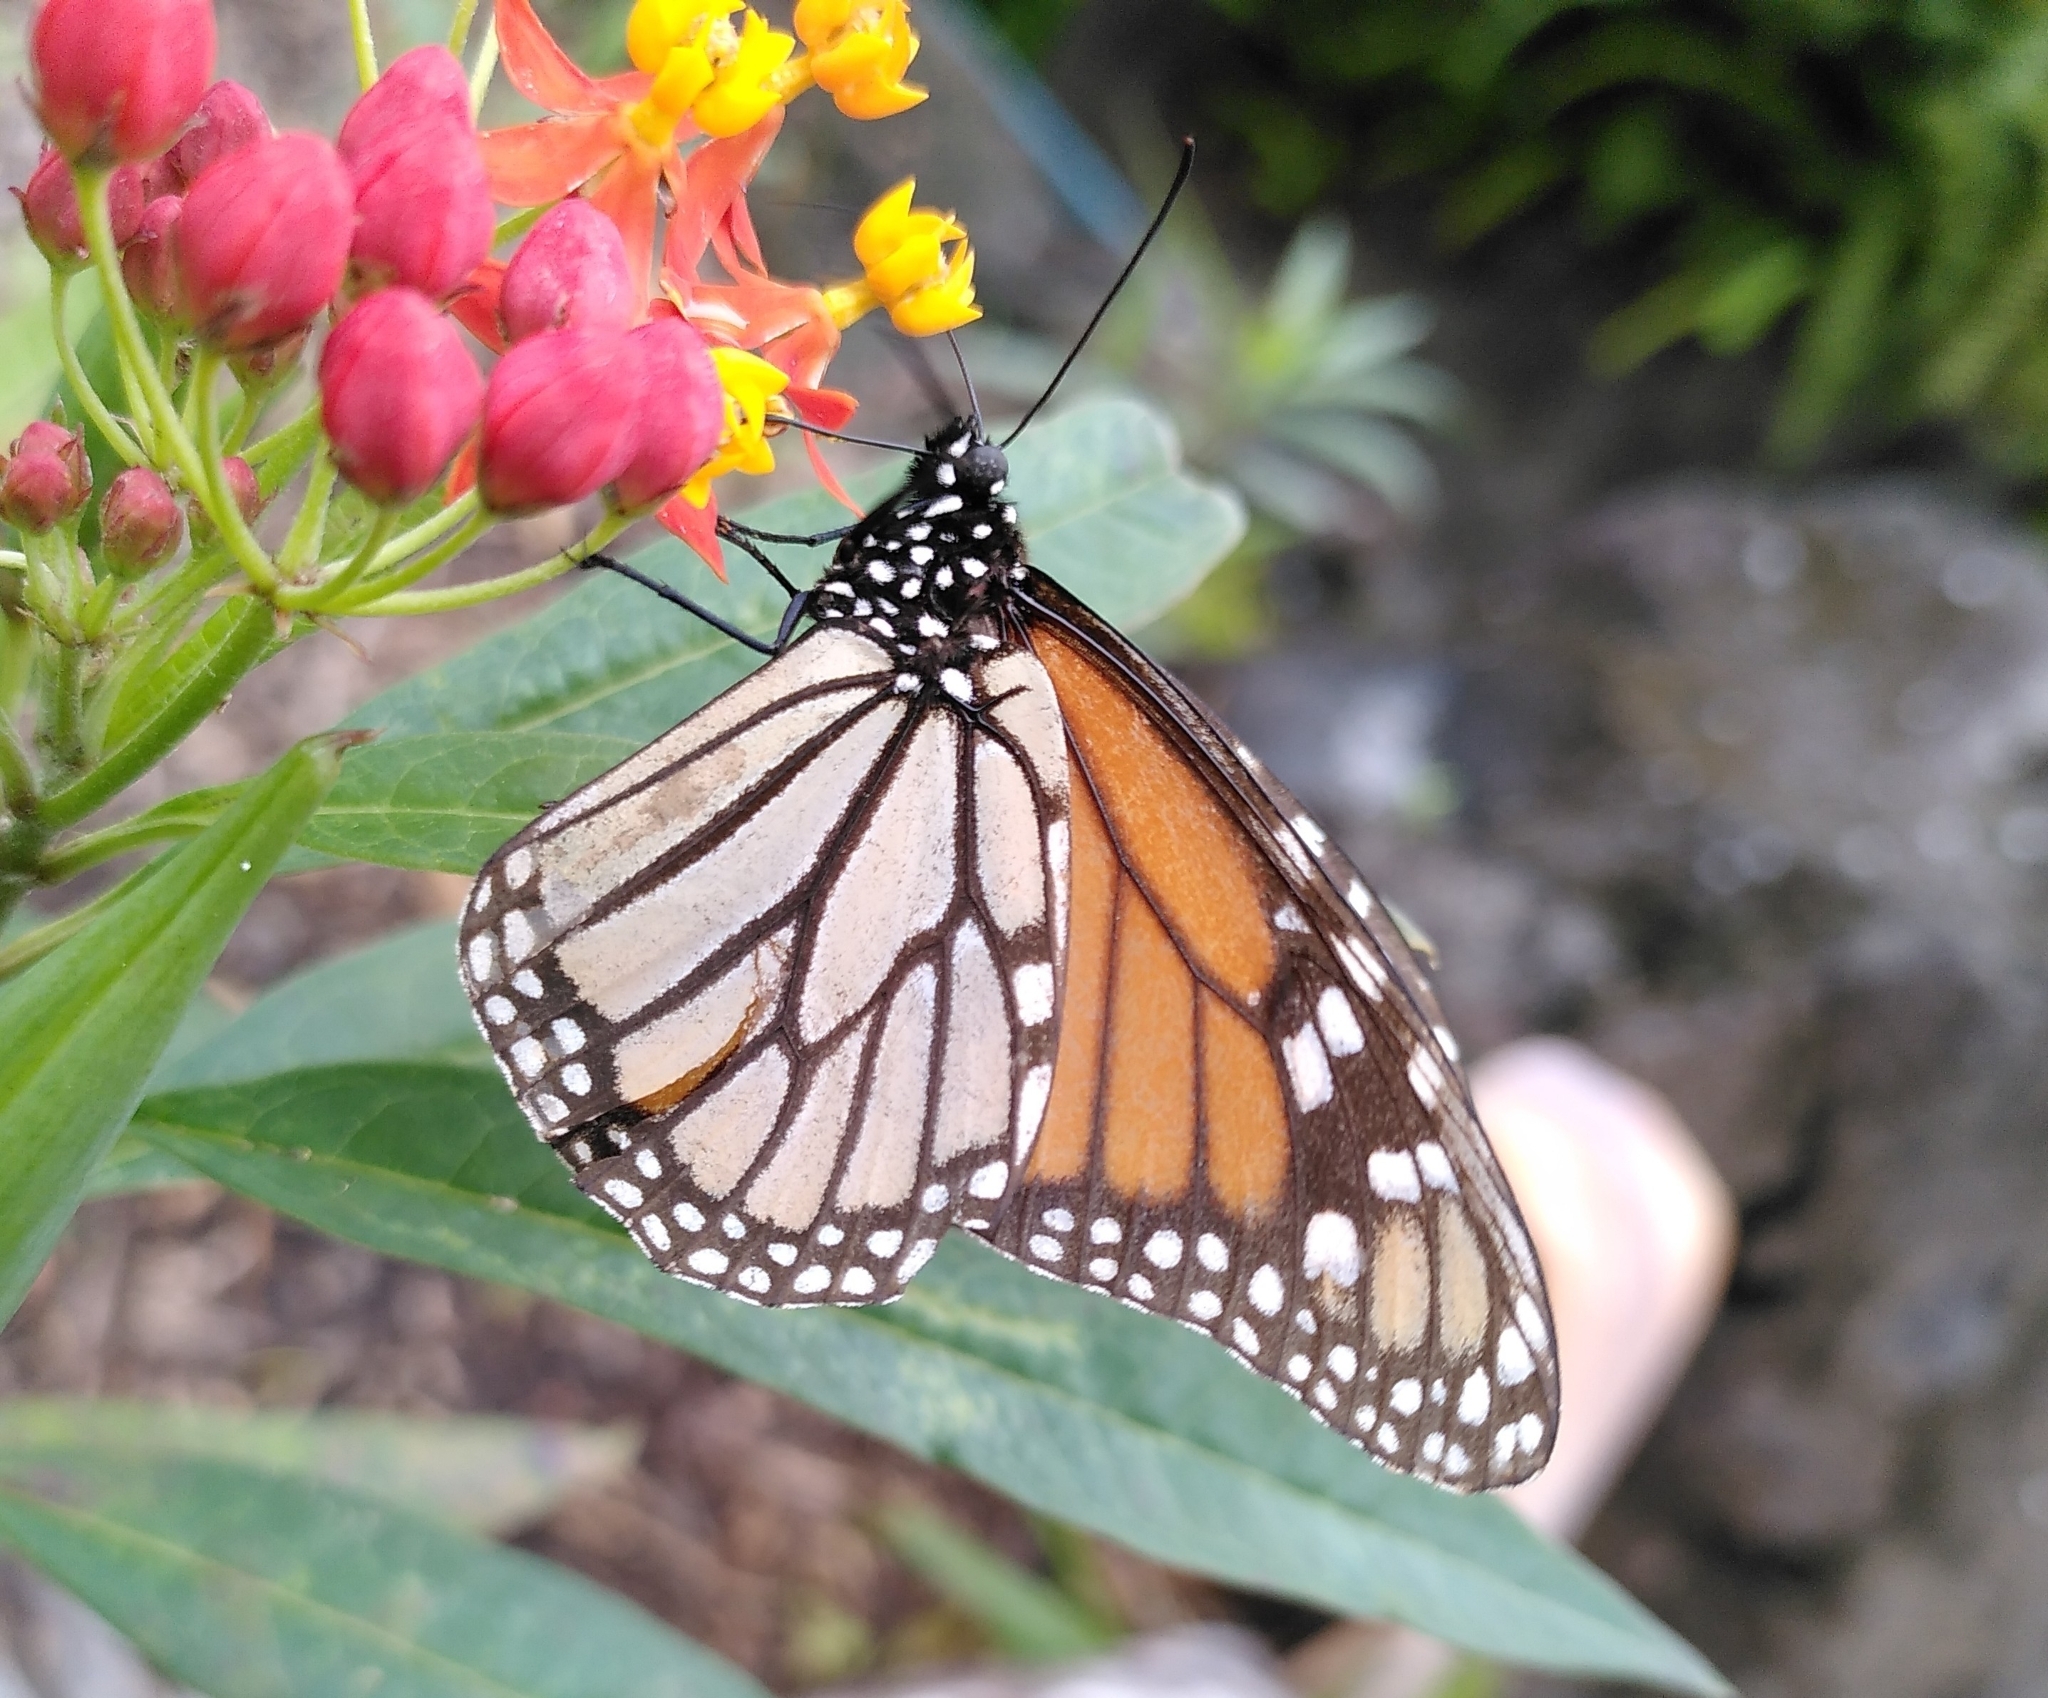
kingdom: Animalia
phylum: Arthropoda
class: Insecta
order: Lepidoptera
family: Nymphalidae
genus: Danaus
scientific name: Danaus plexippus
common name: Monarch
